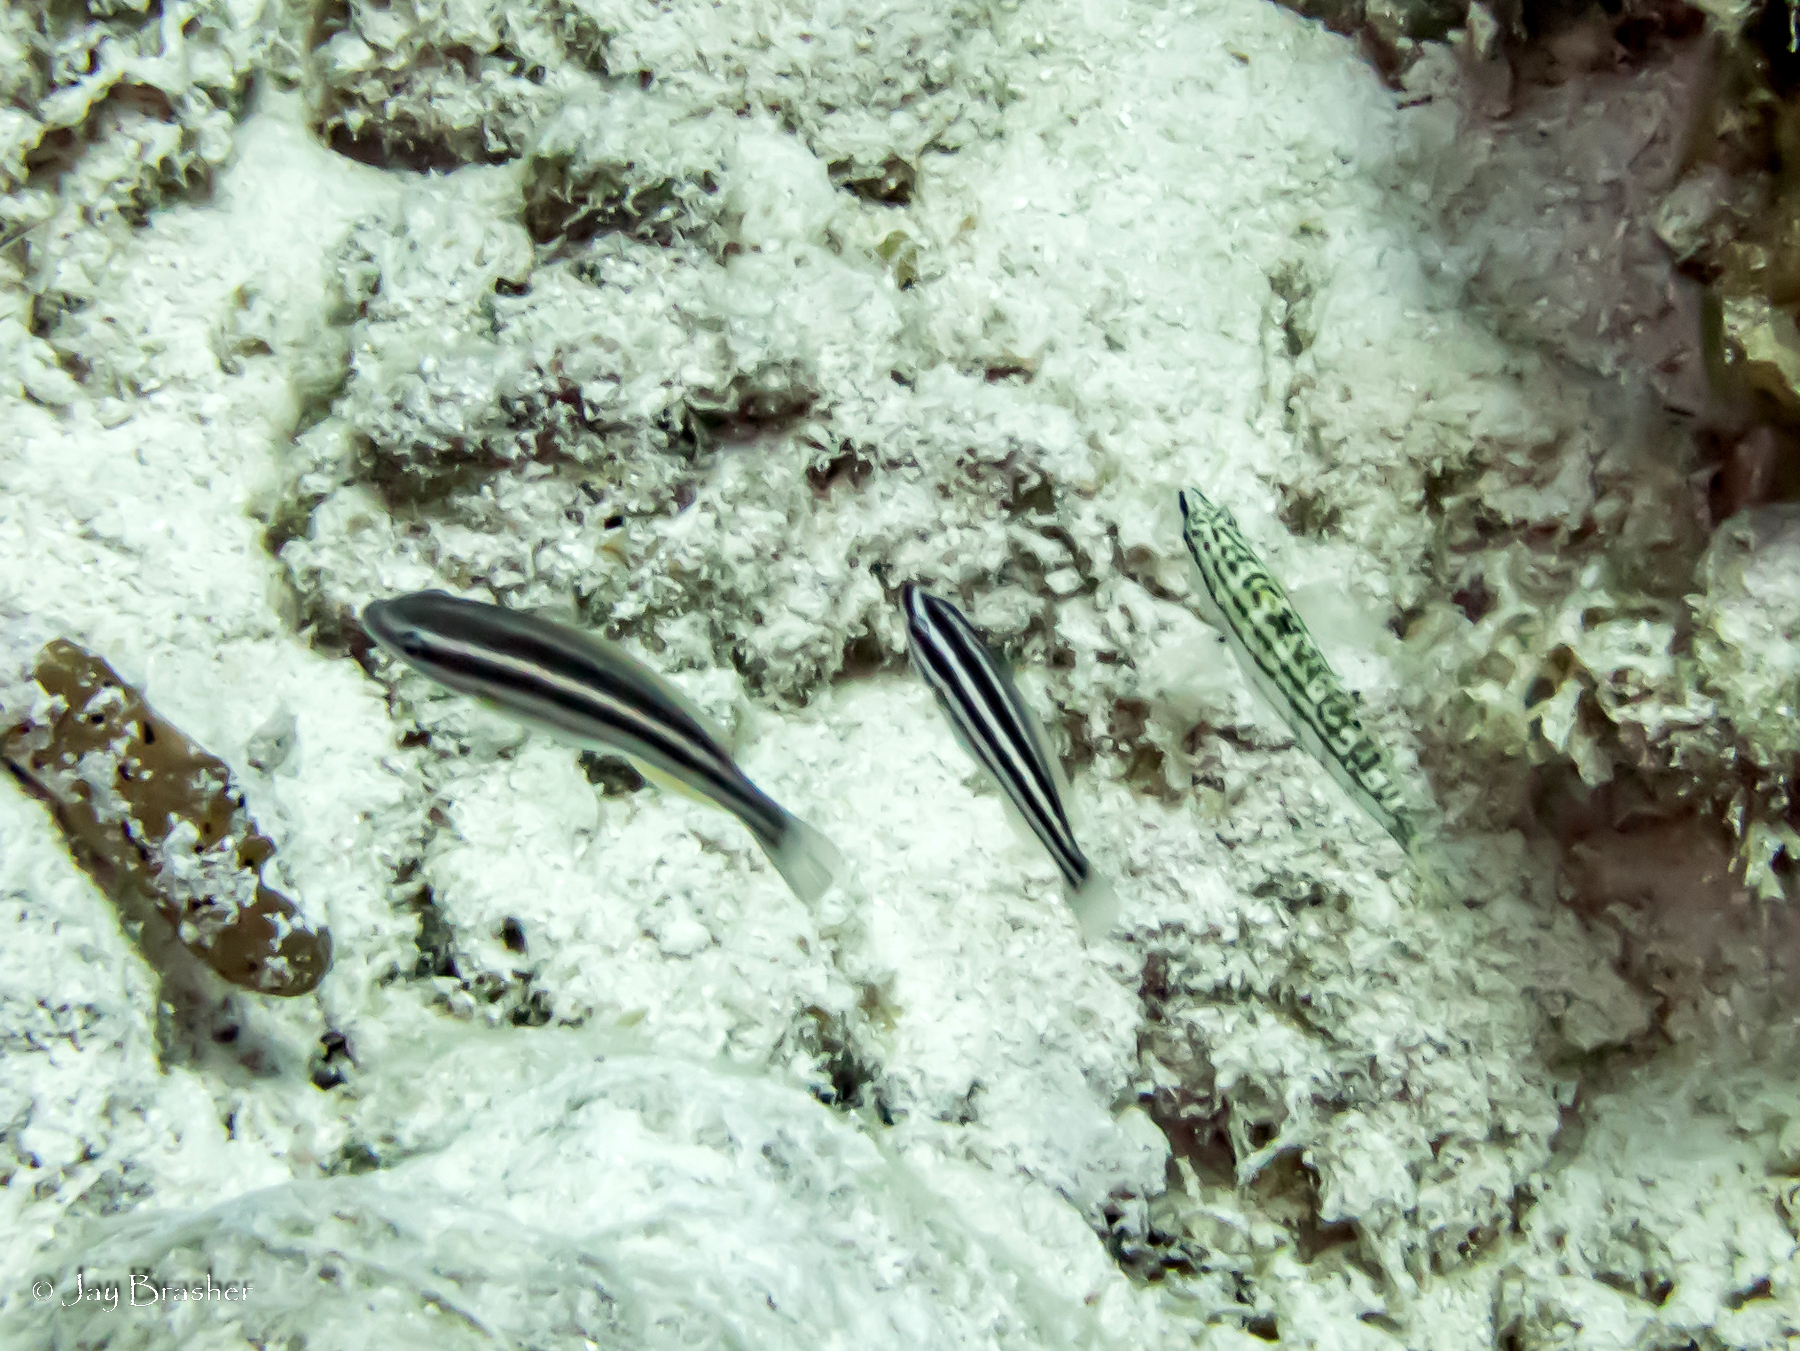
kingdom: Animalia
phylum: Chordata
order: Perciformes
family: Scaridae
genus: Scarus
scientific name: Scarus iseri
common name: Striped parrotfish
